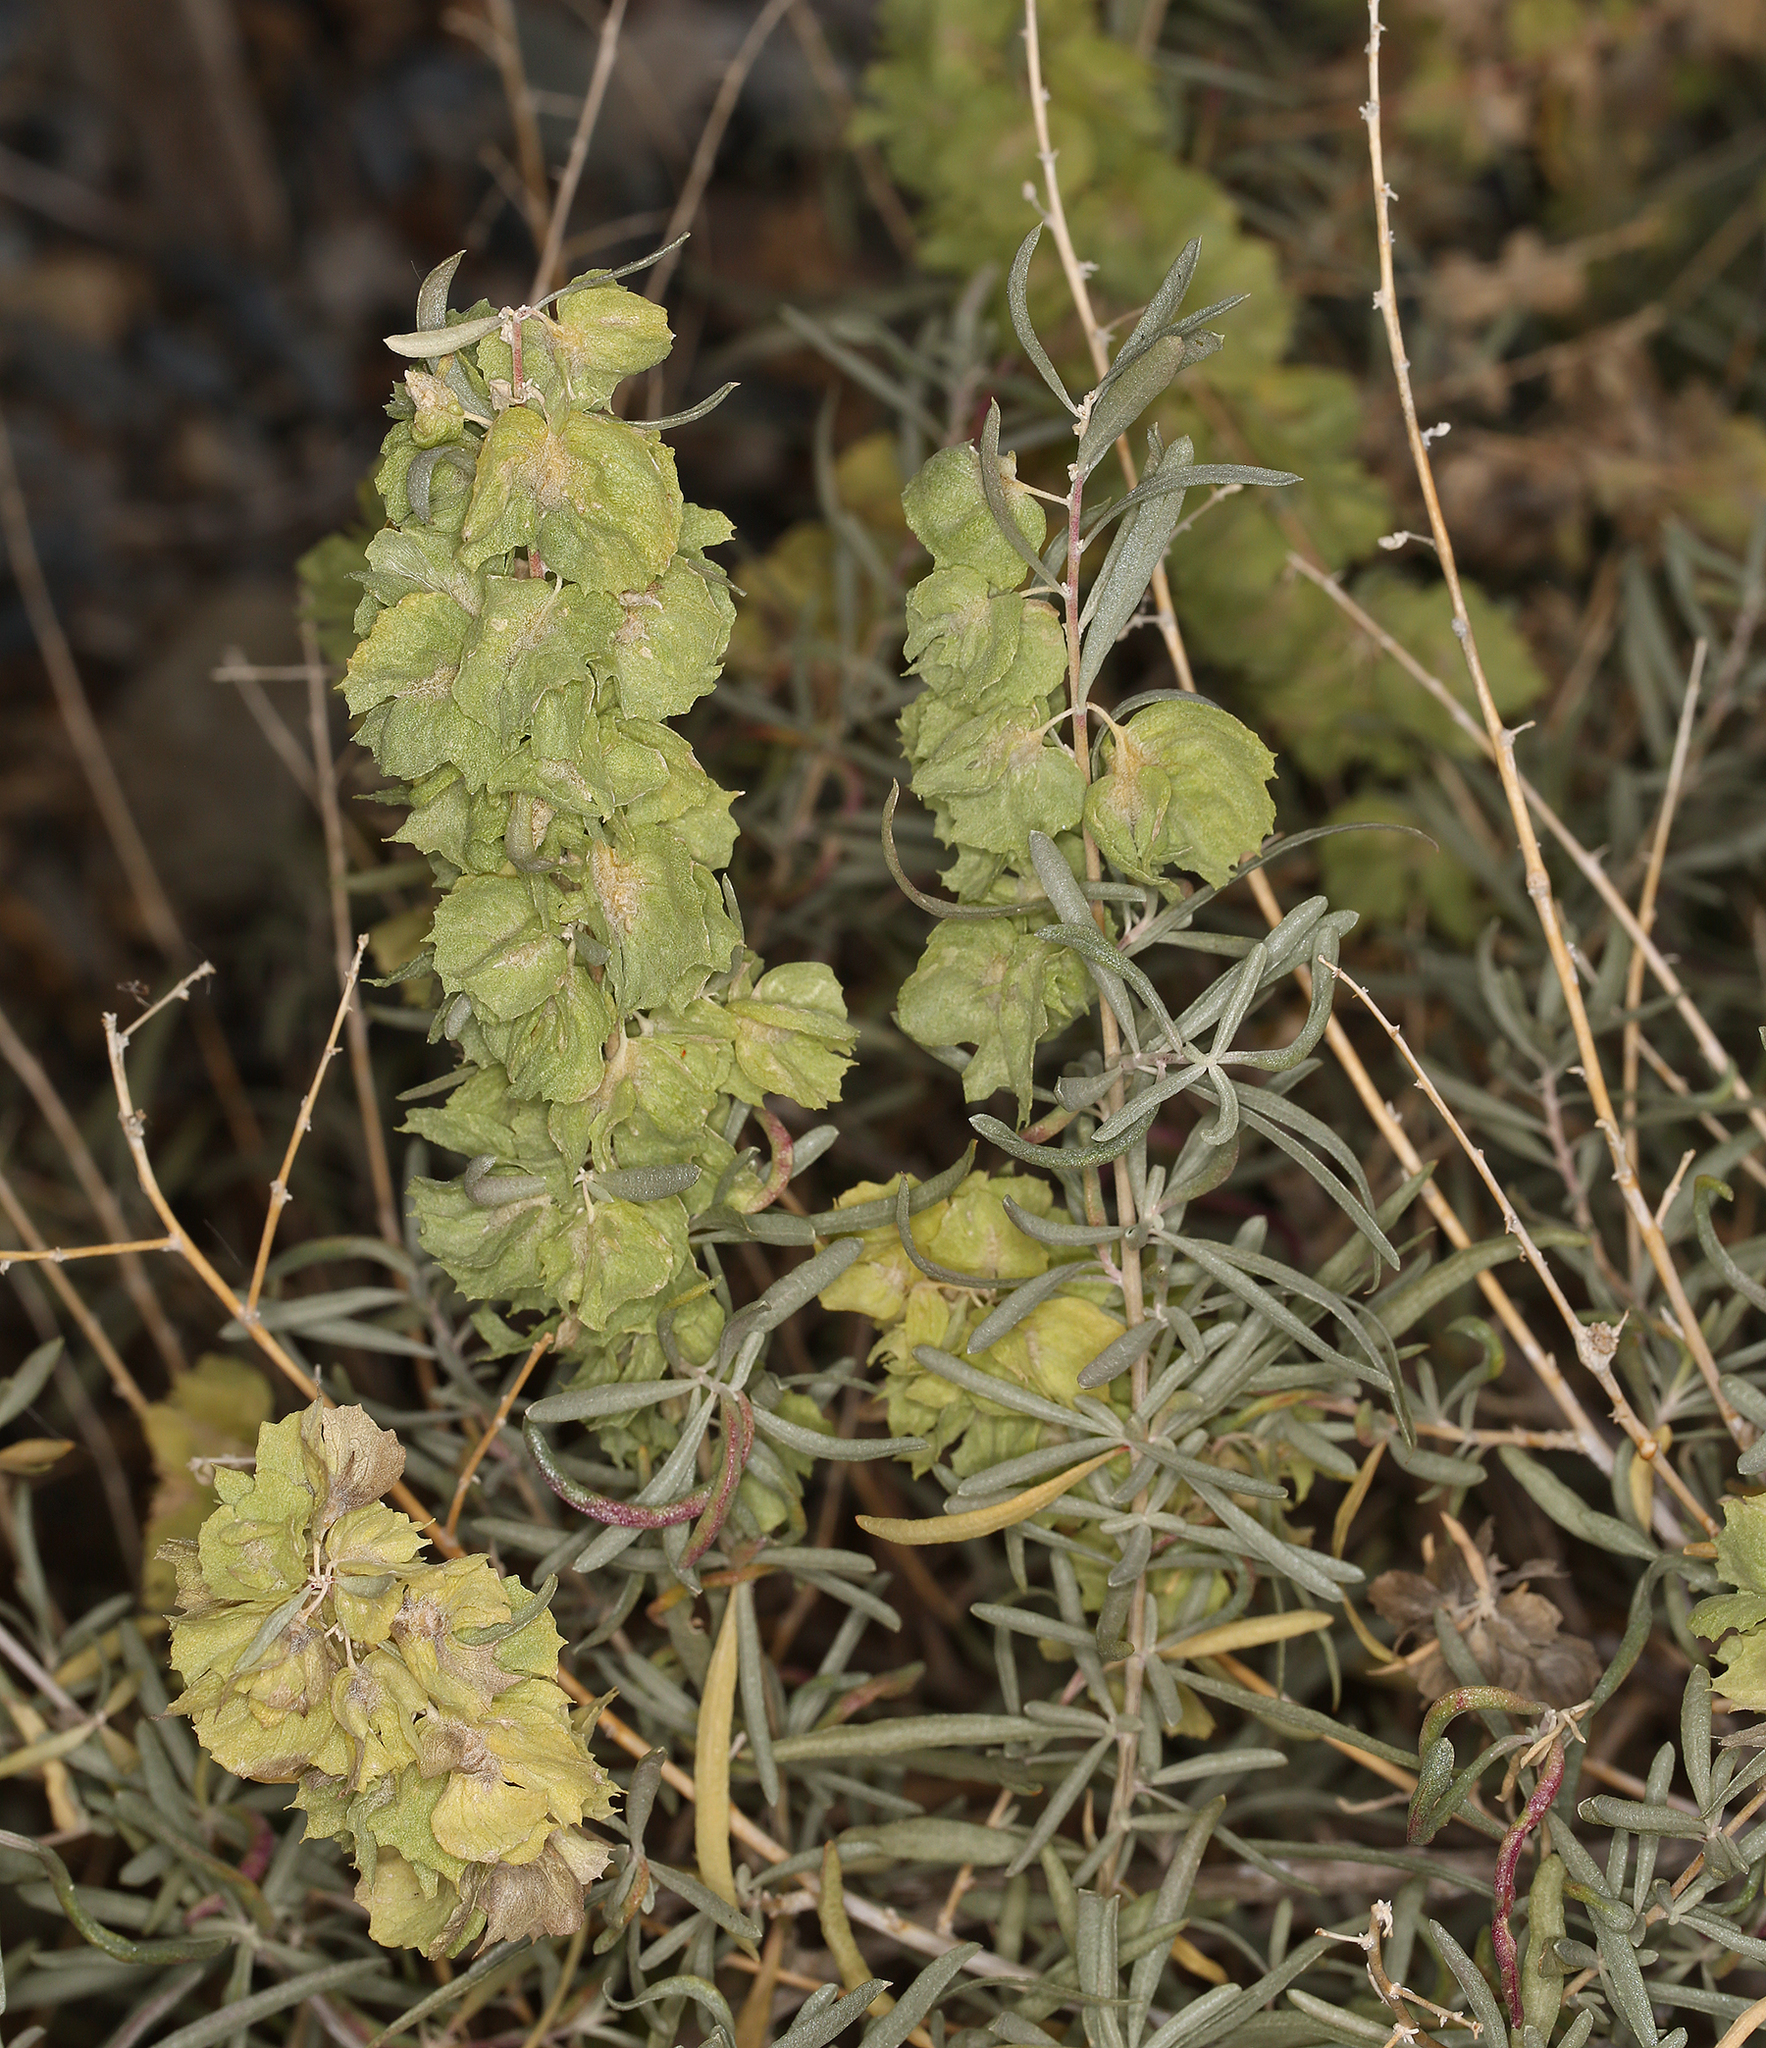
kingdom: Plantae
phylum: Tracheophyta
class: Magnoliopsida
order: Caryophyllales
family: Amaranthaceae
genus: Atriplex
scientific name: Atriplex canescens
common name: Four-wing saltbush
